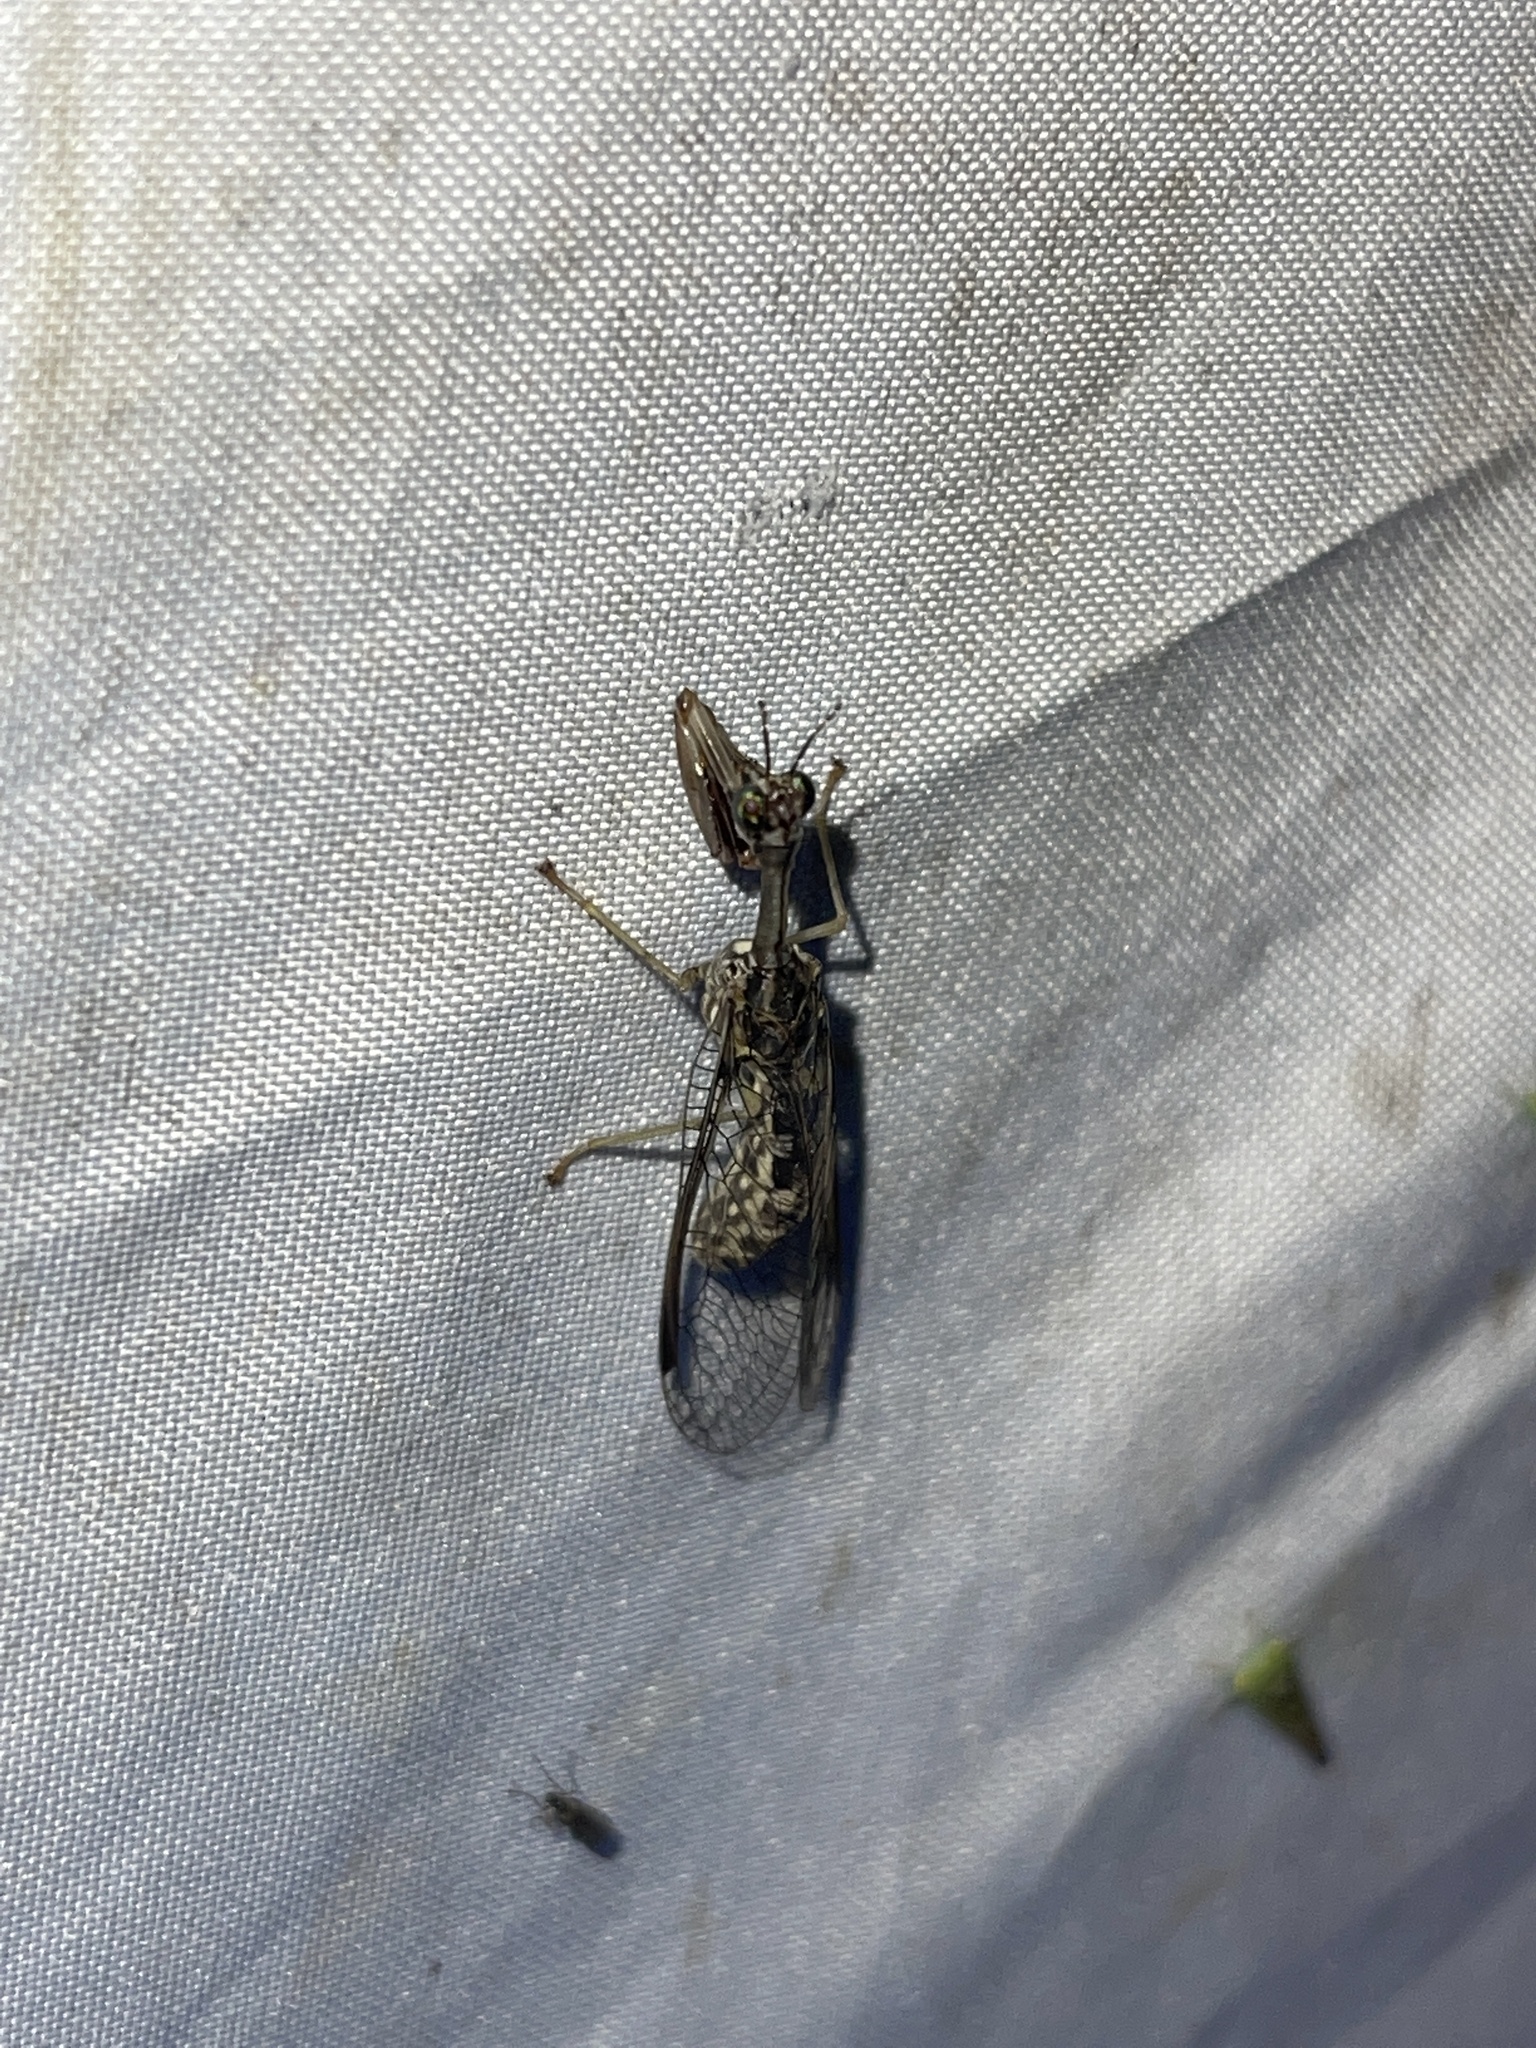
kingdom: Animalia
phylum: Arthropoda
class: Insecta
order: Neuroptera
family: Mantispidae
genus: Dicromantispa
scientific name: Dicromantispa sayi
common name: Say's mantidfly
